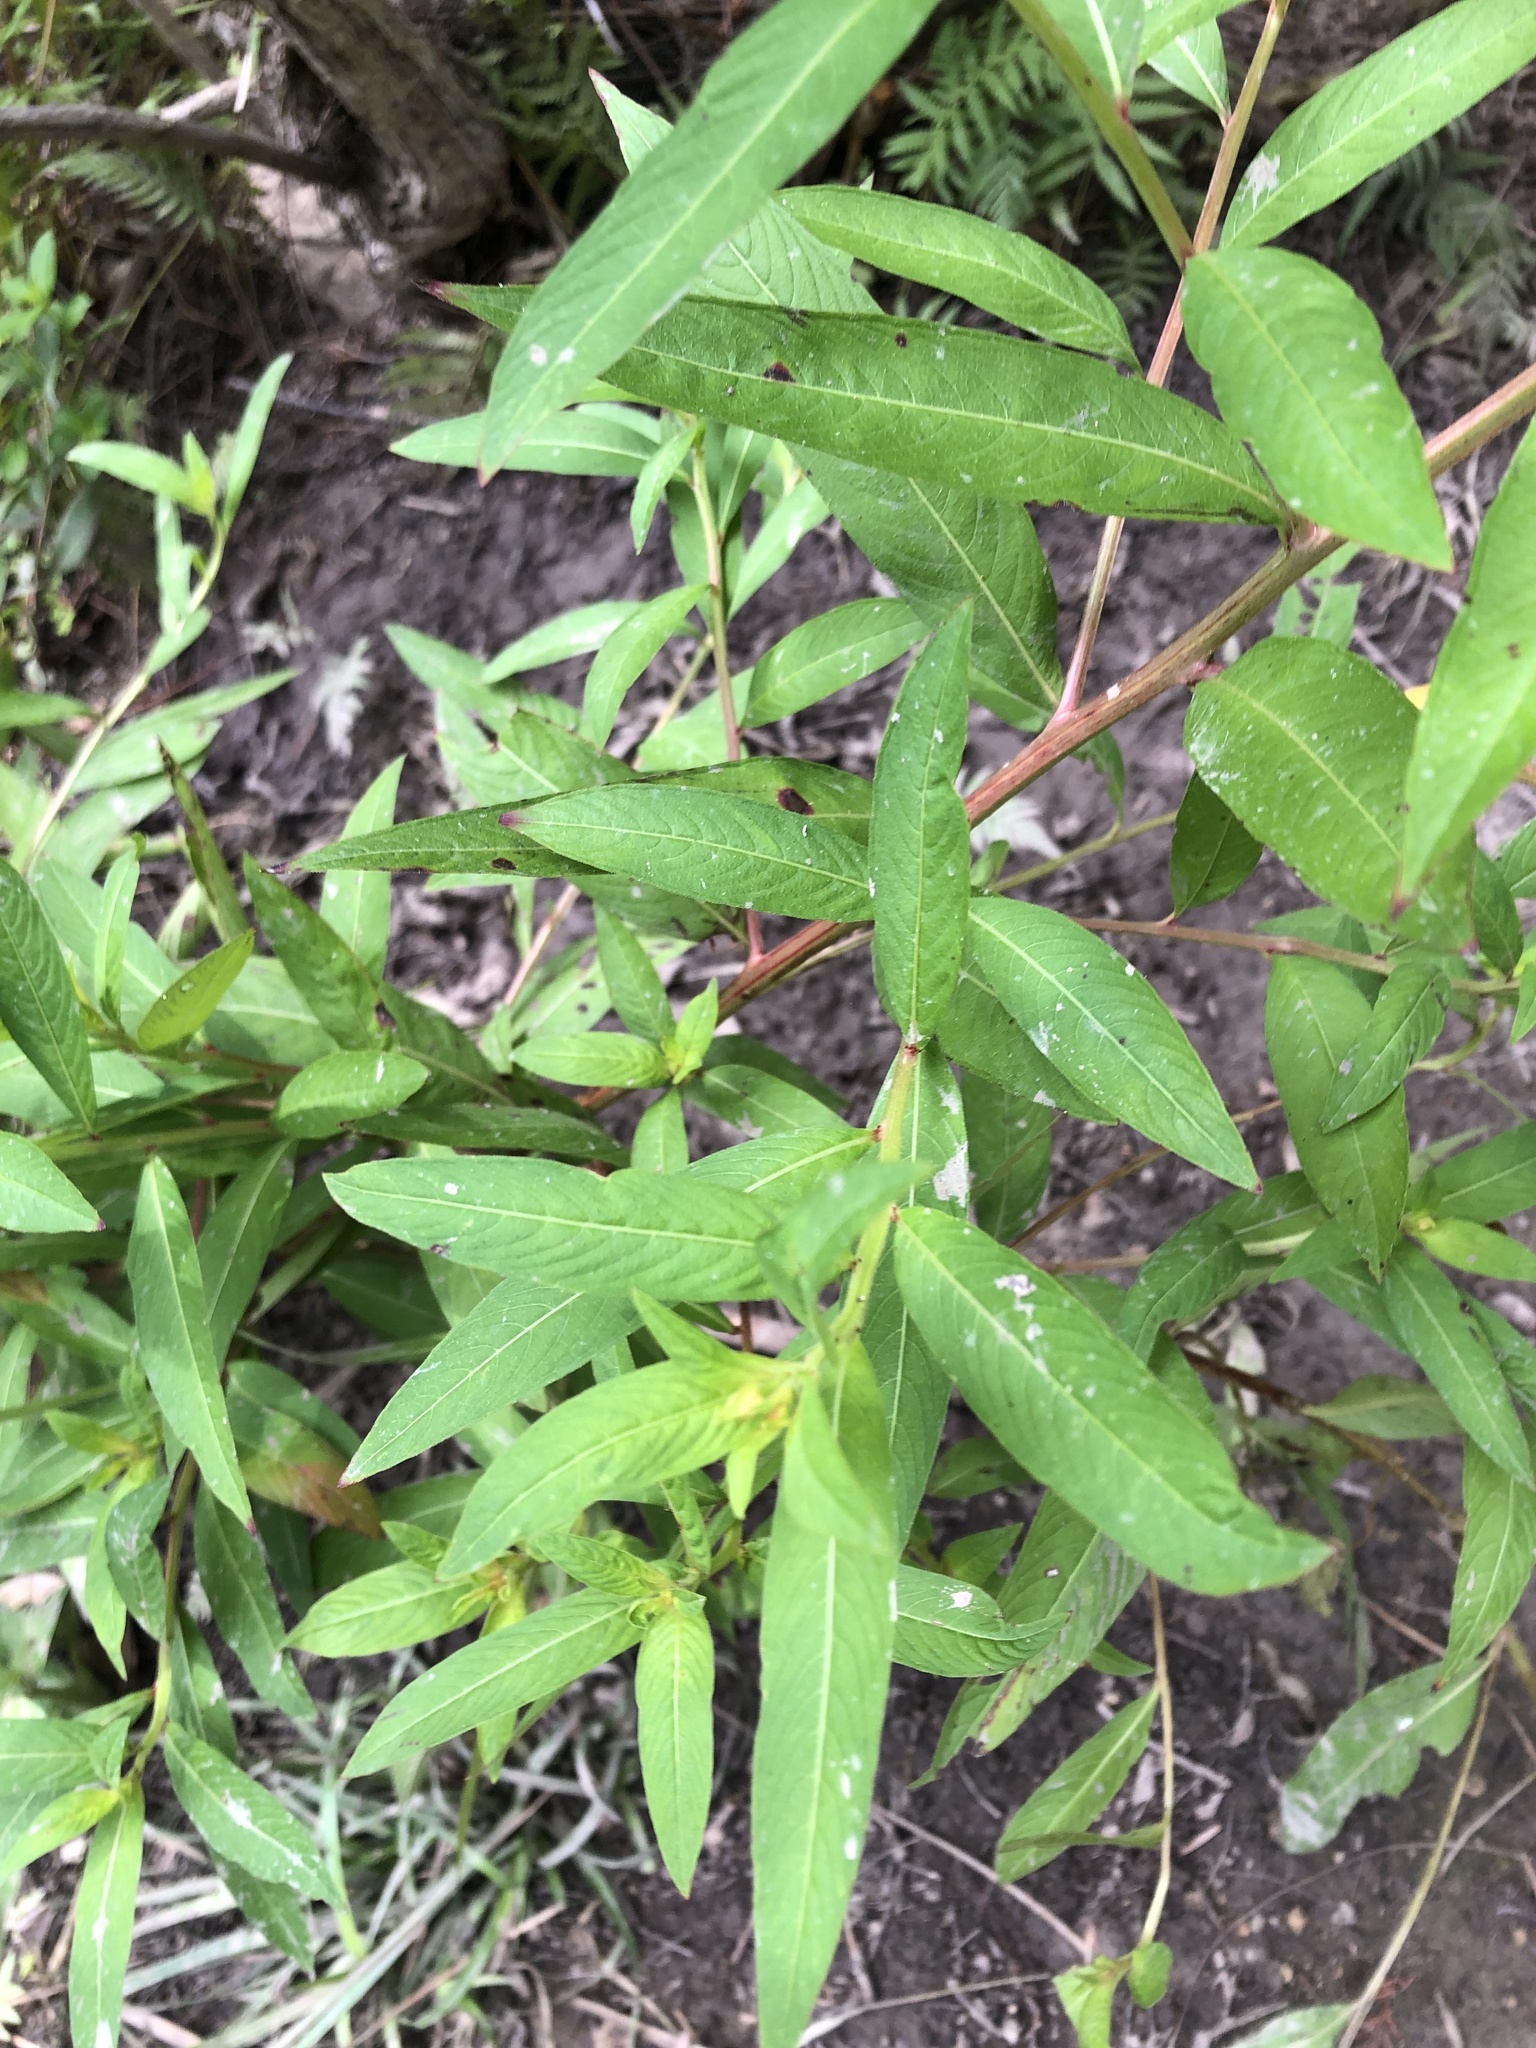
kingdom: Plantae
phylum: Tracheophyta
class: Magnoliopsida
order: Myrtales
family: Onagraceae
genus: Ludwigia
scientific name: Ludwigia octovalvis
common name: Water-primrose
